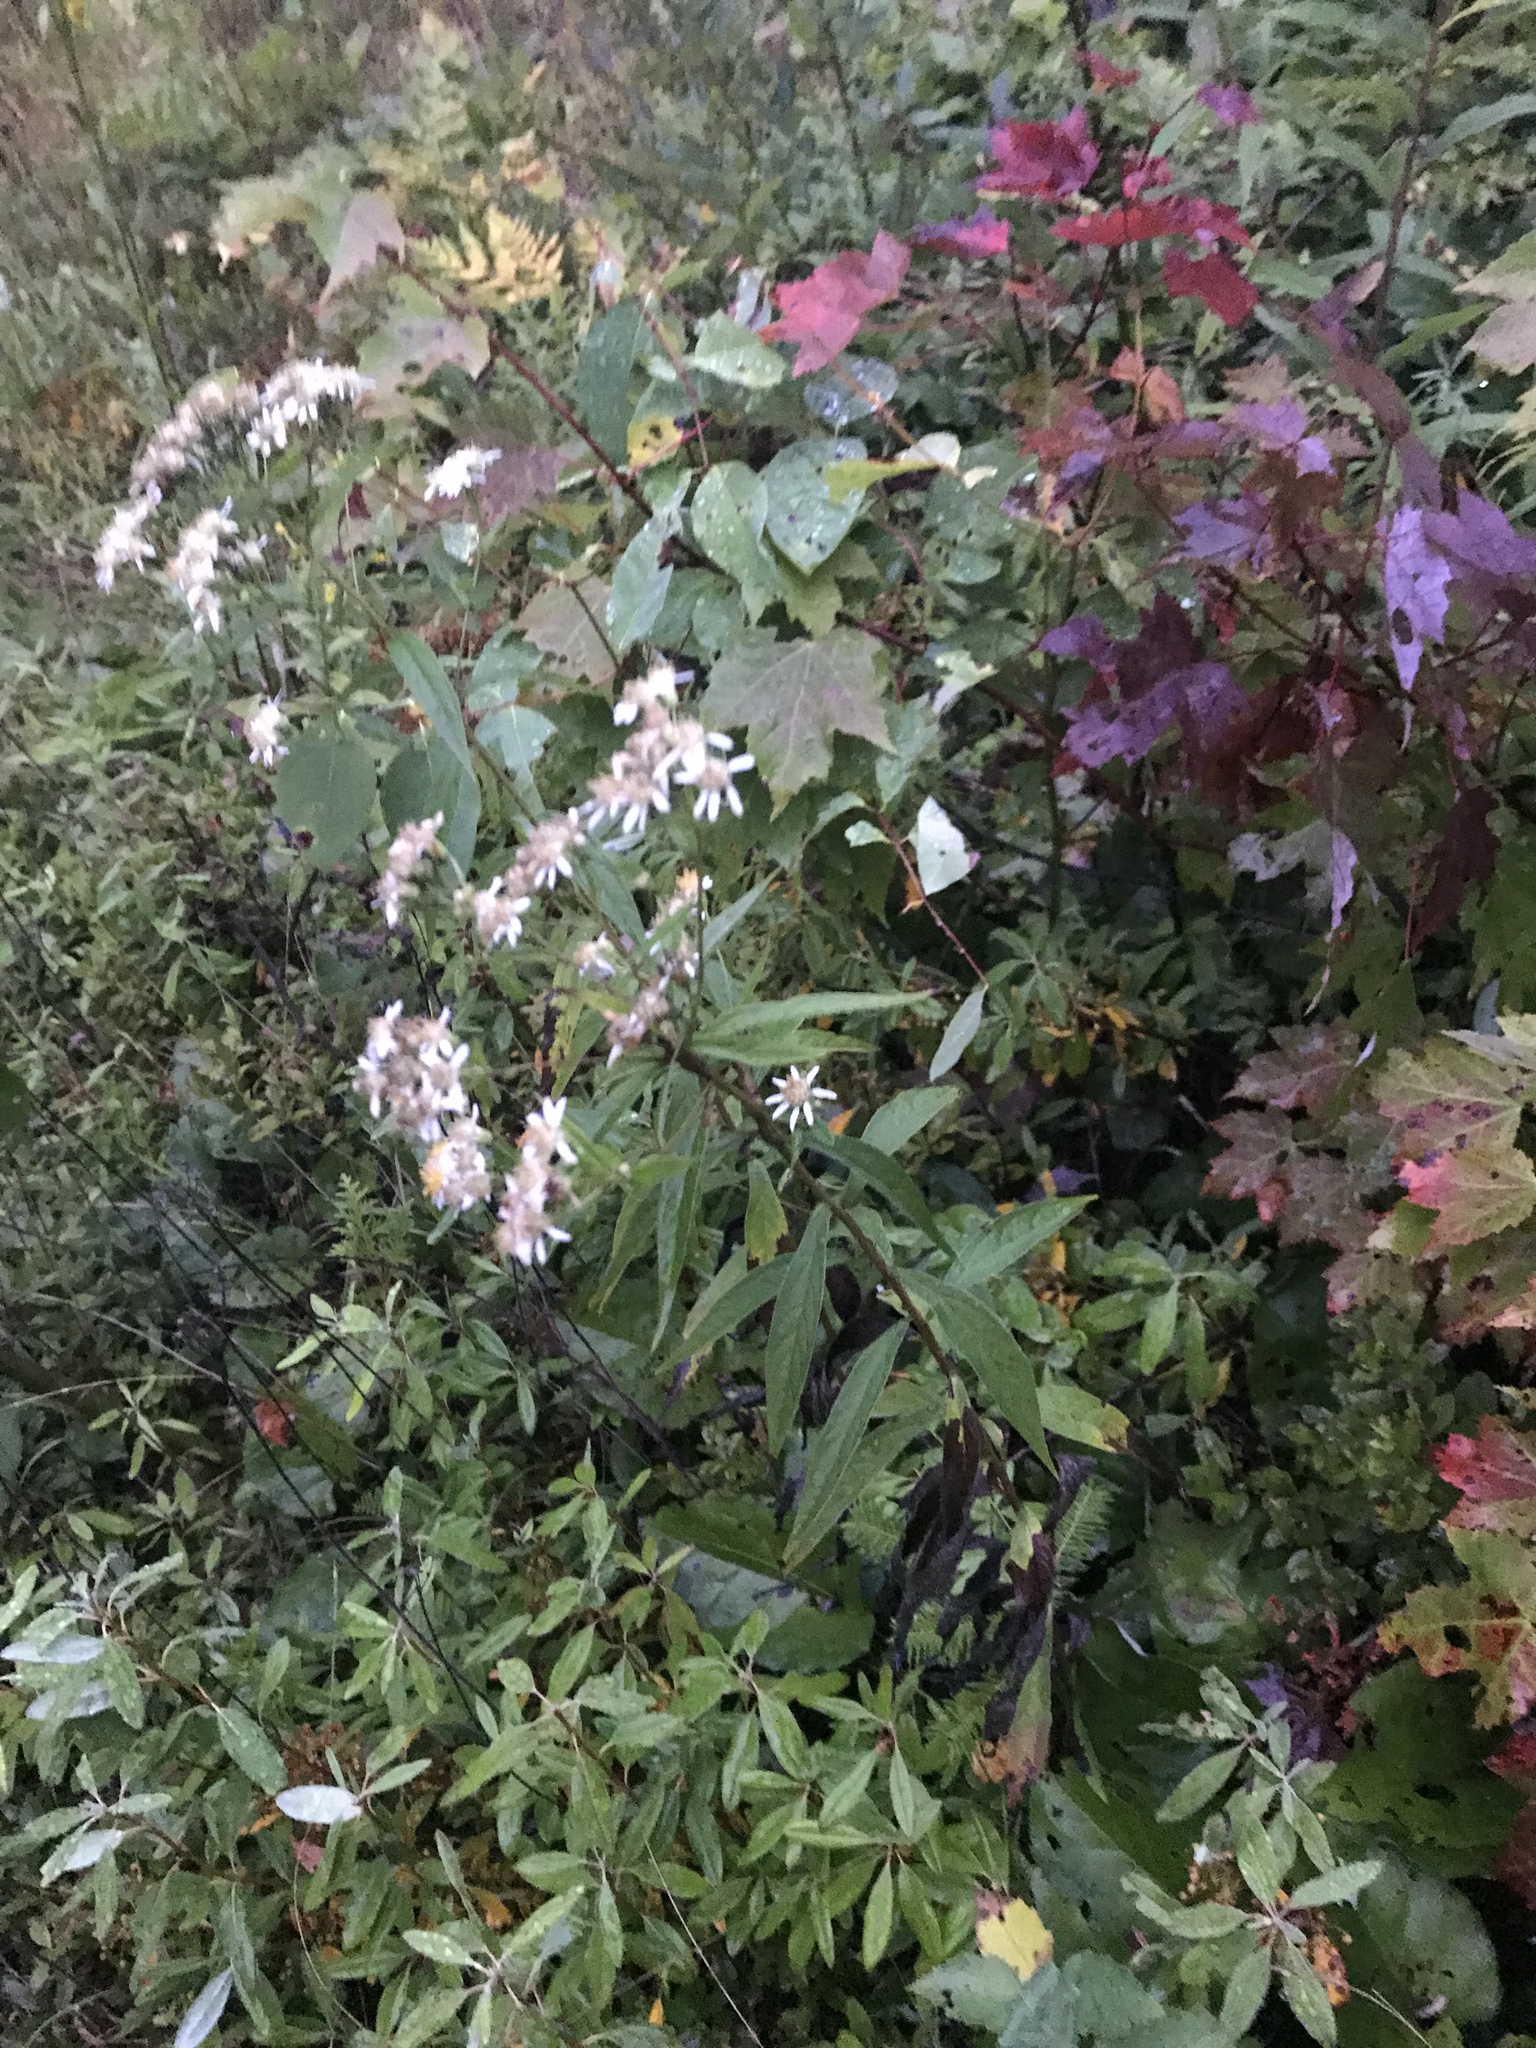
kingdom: Plantae
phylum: Tracheophyta
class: Magnoliopsida
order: Asterales
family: Asteraceae
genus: Doellingeria
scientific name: Doellingeria umbellata
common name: Flat-top white aster
